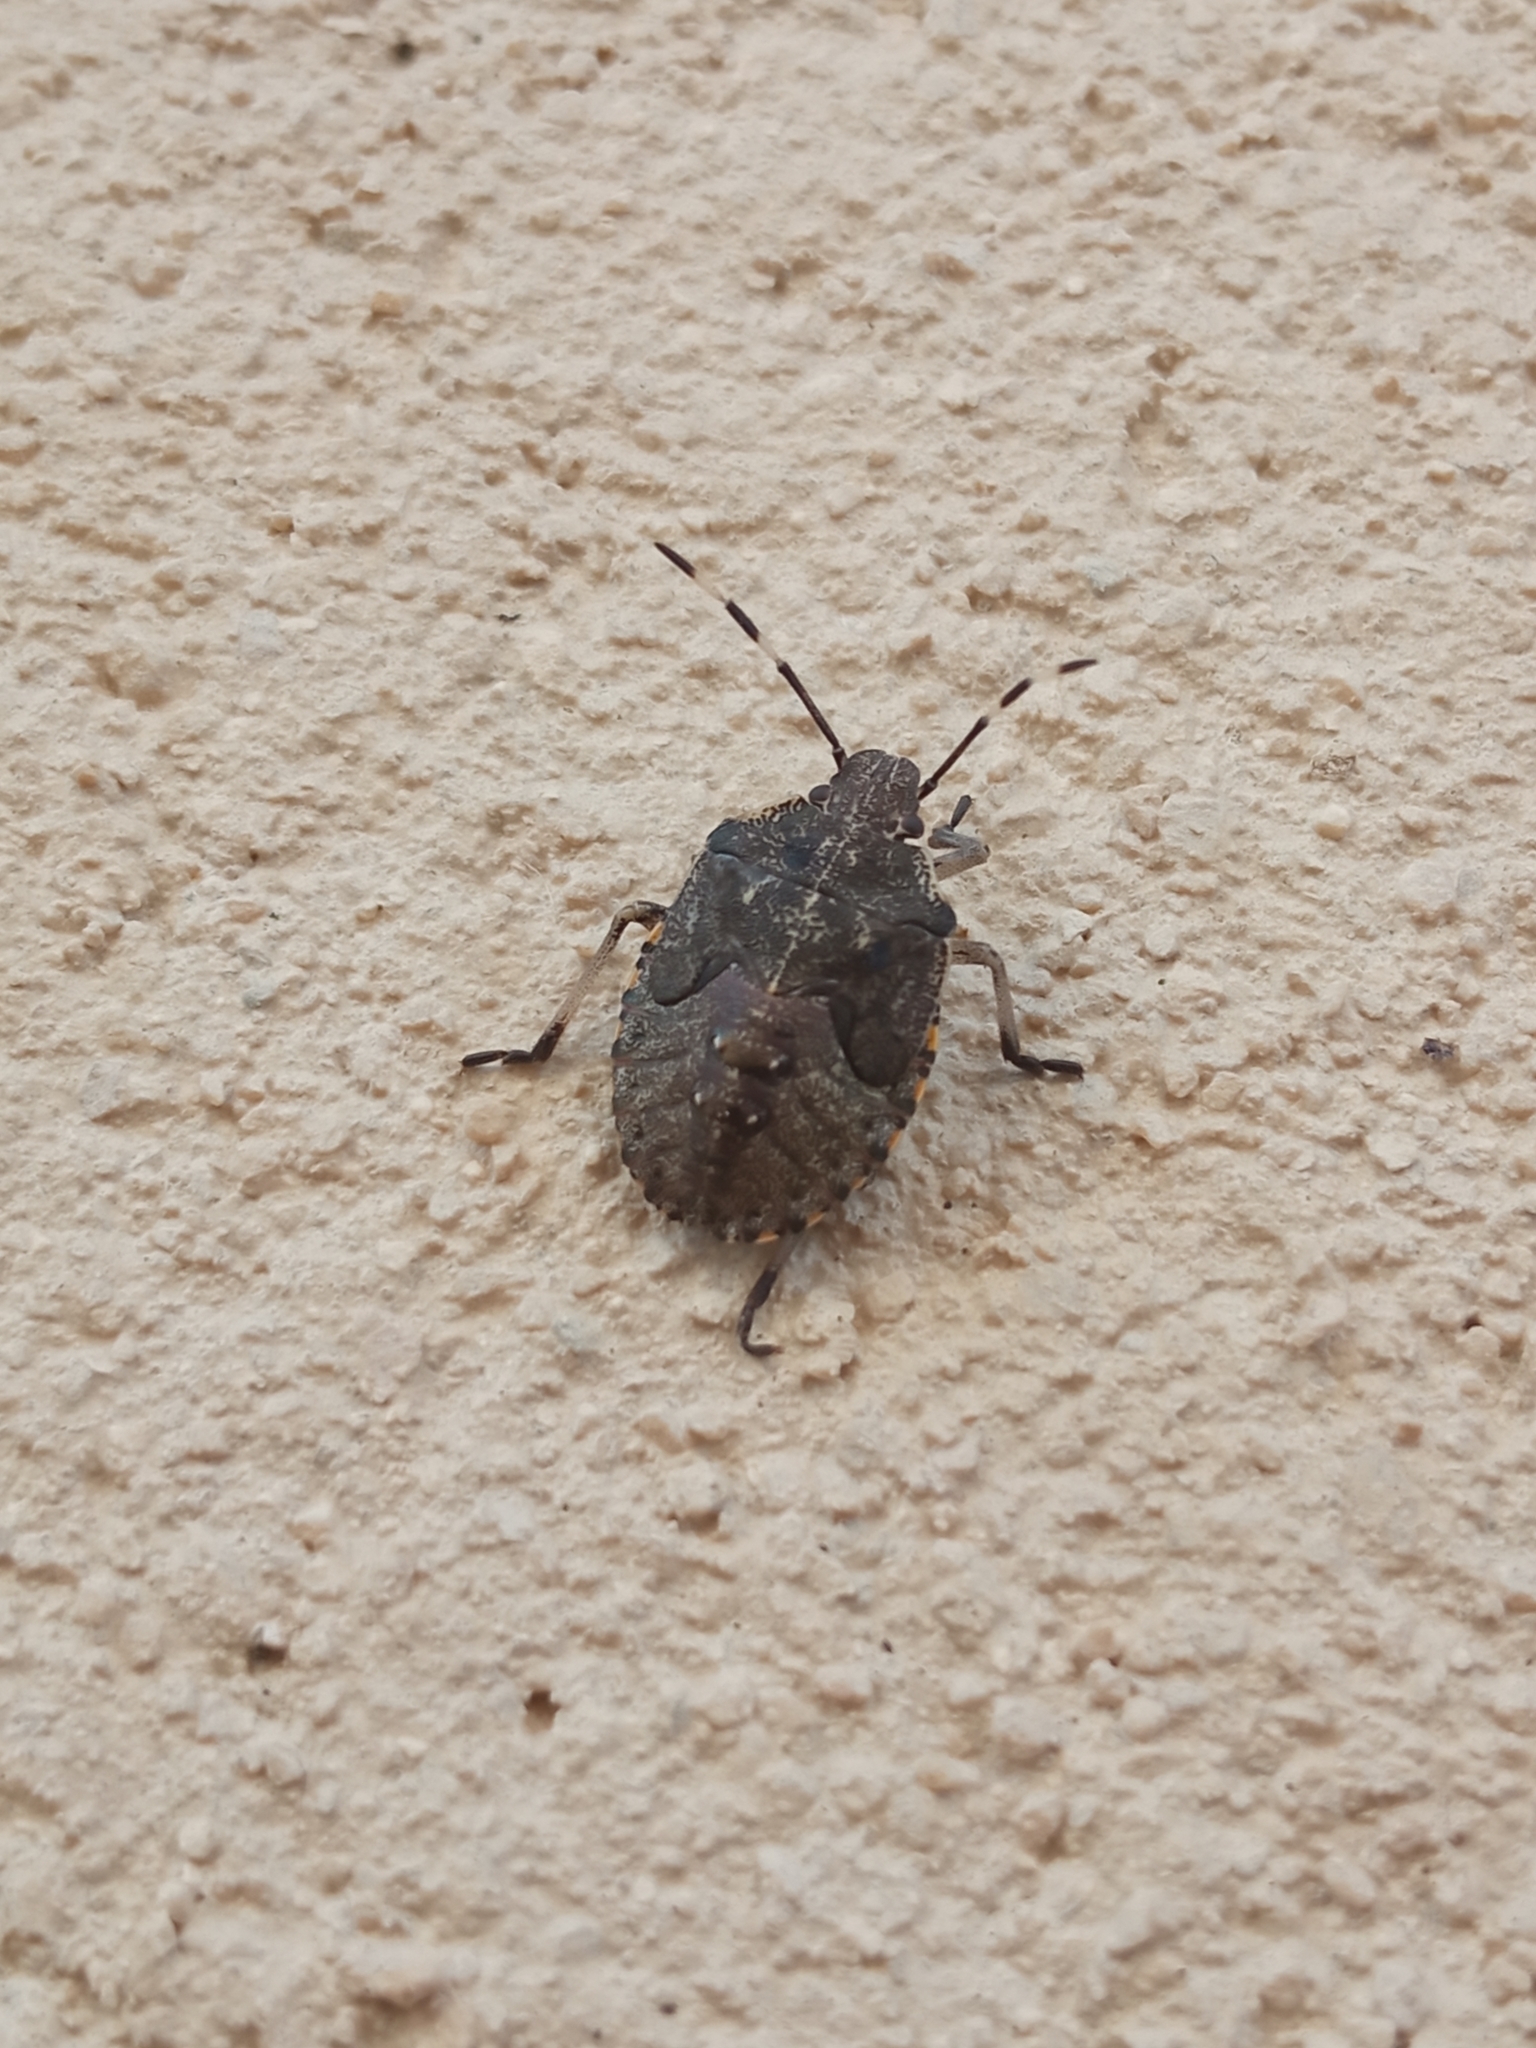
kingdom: Animalia
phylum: Arthropoda
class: Insecta
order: Hemiptera
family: Pentatomidae
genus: Rhaphigaster
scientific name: Rhaphigaster nebulosa
